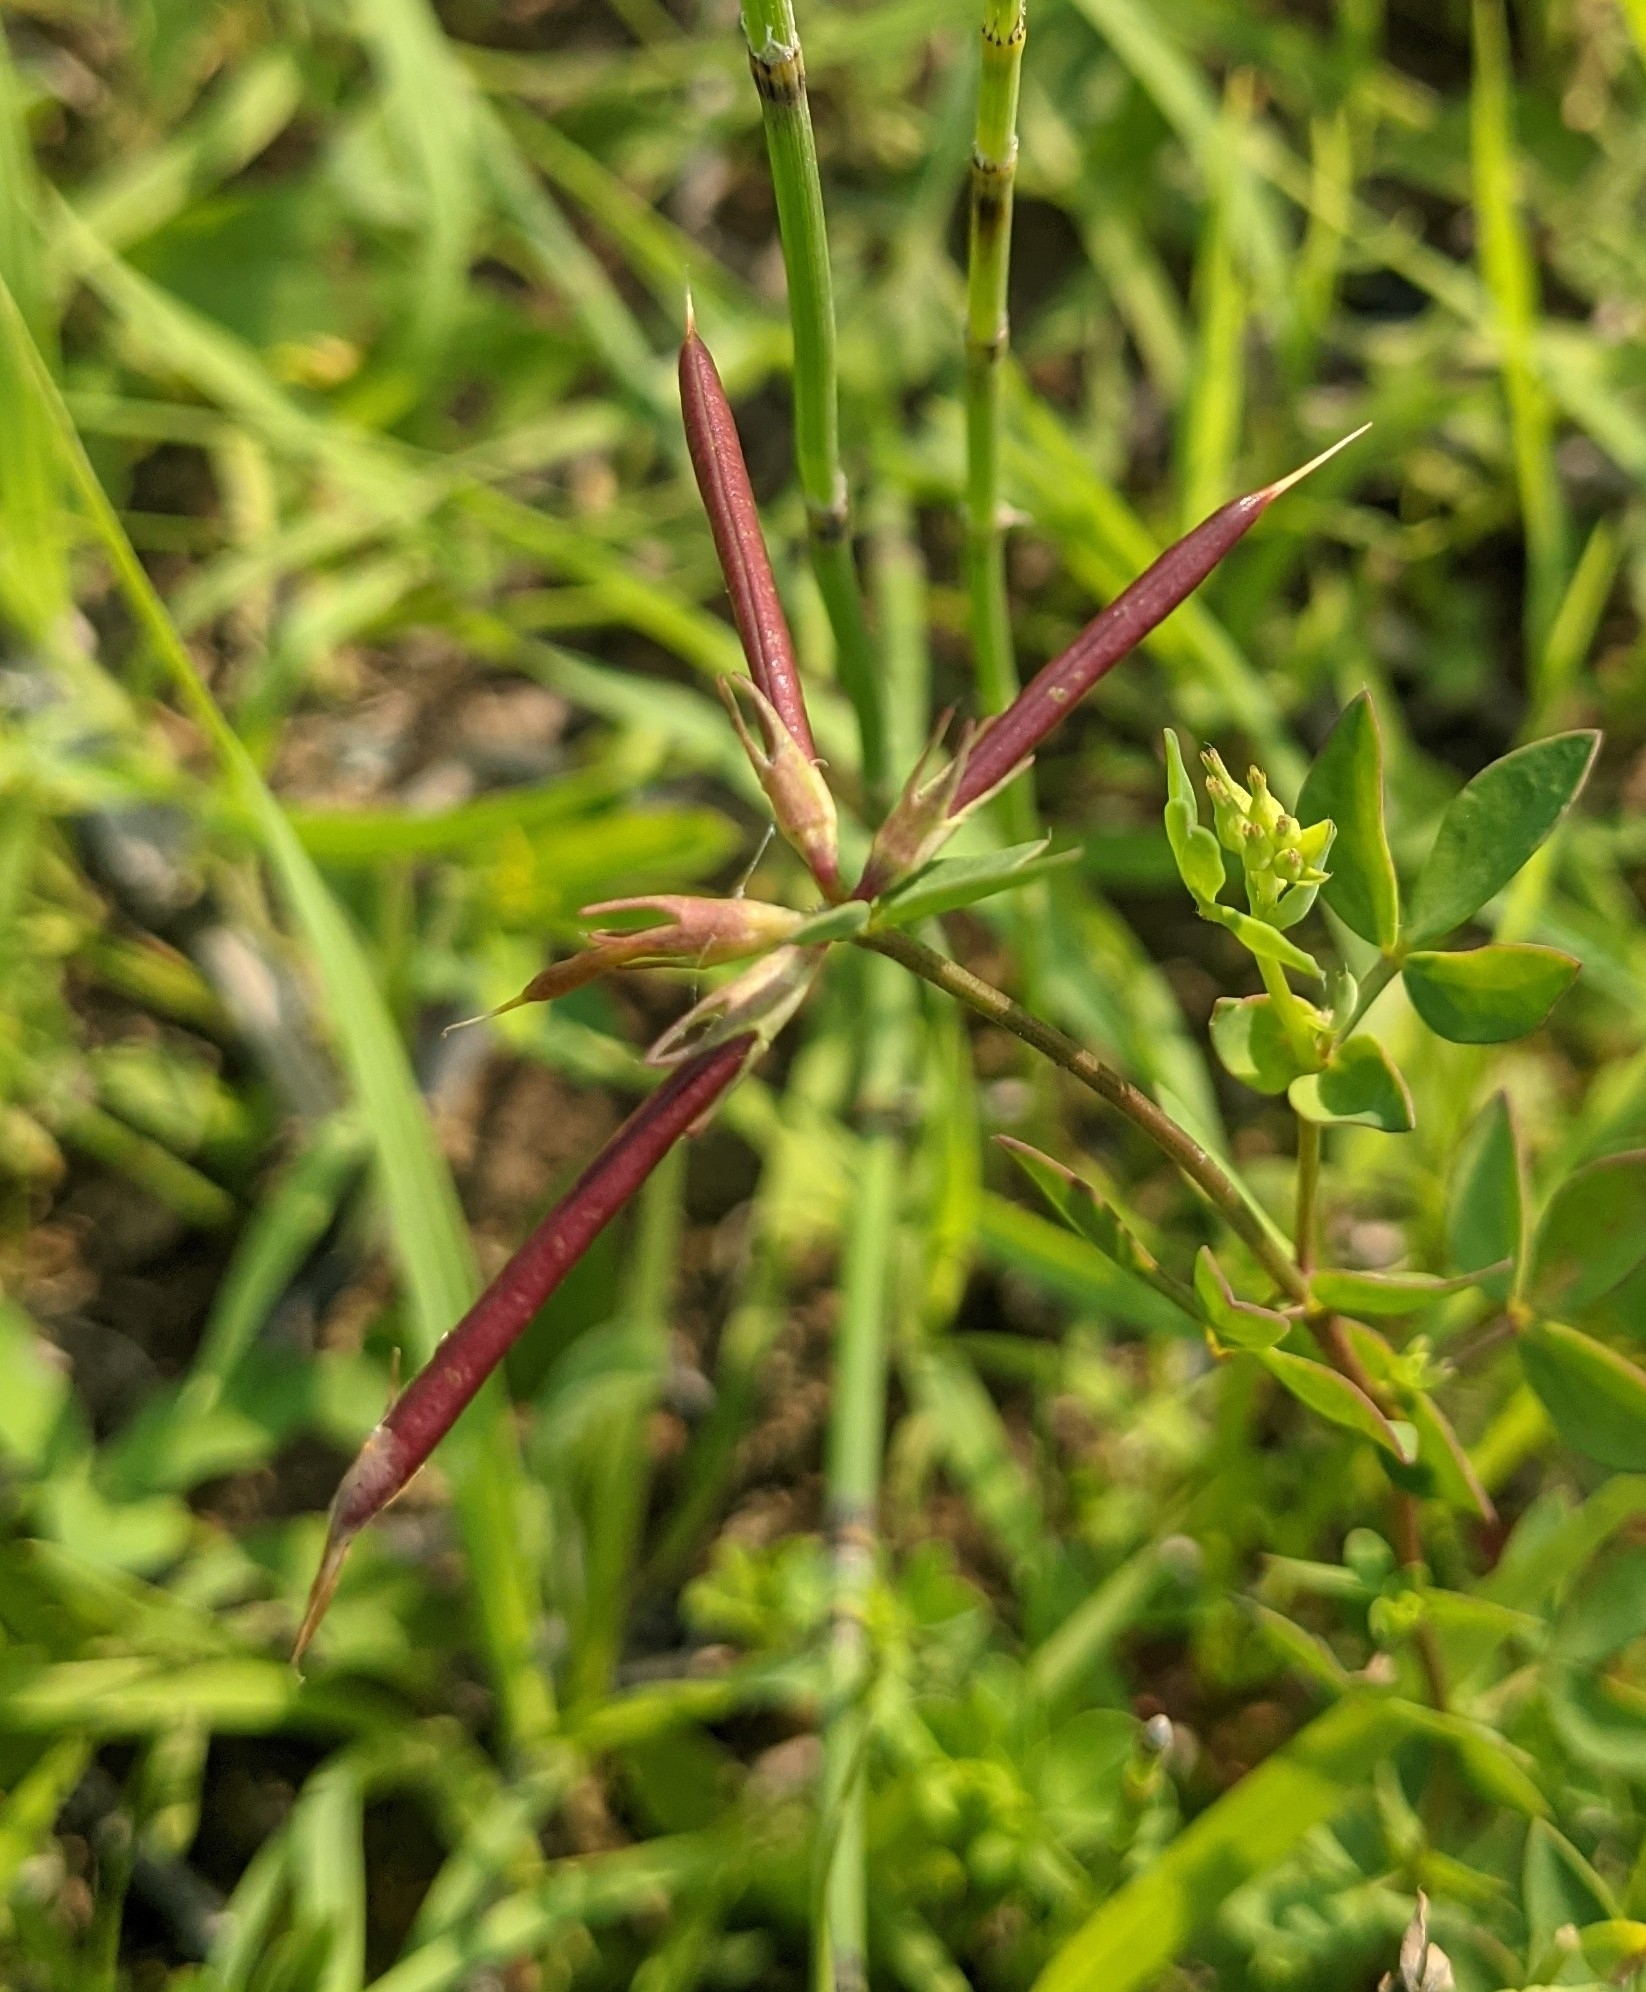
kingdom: Plantae
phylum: Tracheophyta
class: Magnoliopsida
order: Fabales
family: Fabaceae
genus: Lotus
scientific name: Lotus corniculatus
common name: Common bird's-foot-trefoil
